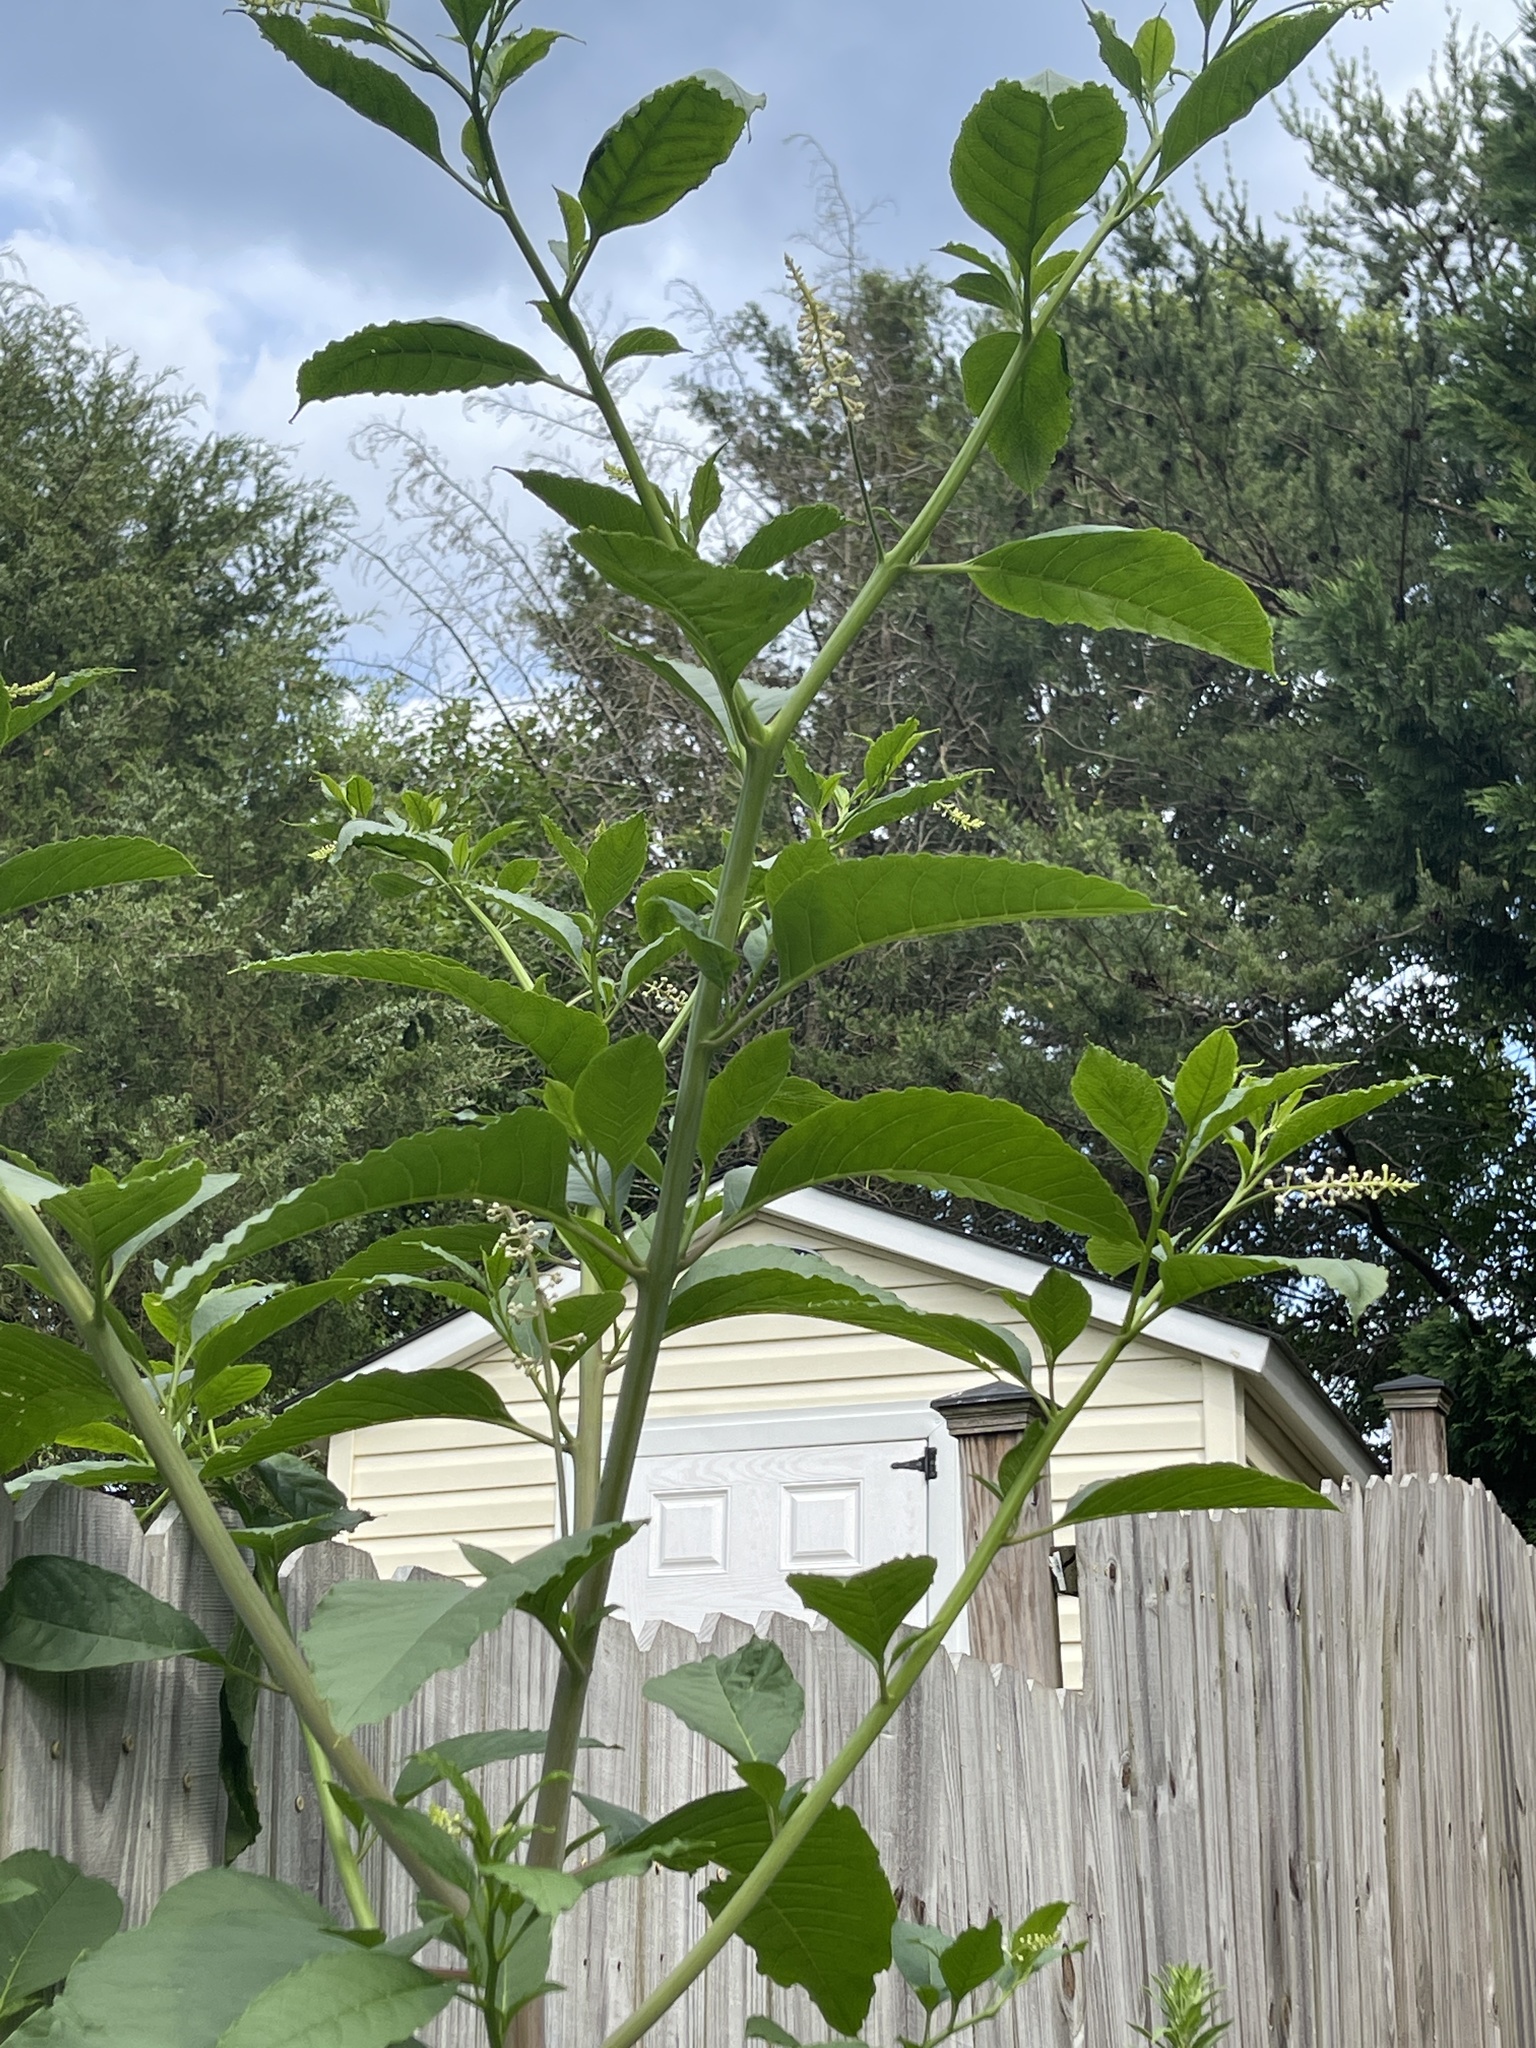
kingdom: Plantae
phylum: Tracheophyta
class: Magnoliopsida
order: Caryophyllales
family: Phytolaccaceae
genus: Phytolacca
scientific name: Phytolacca americana
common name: American pokeweed
